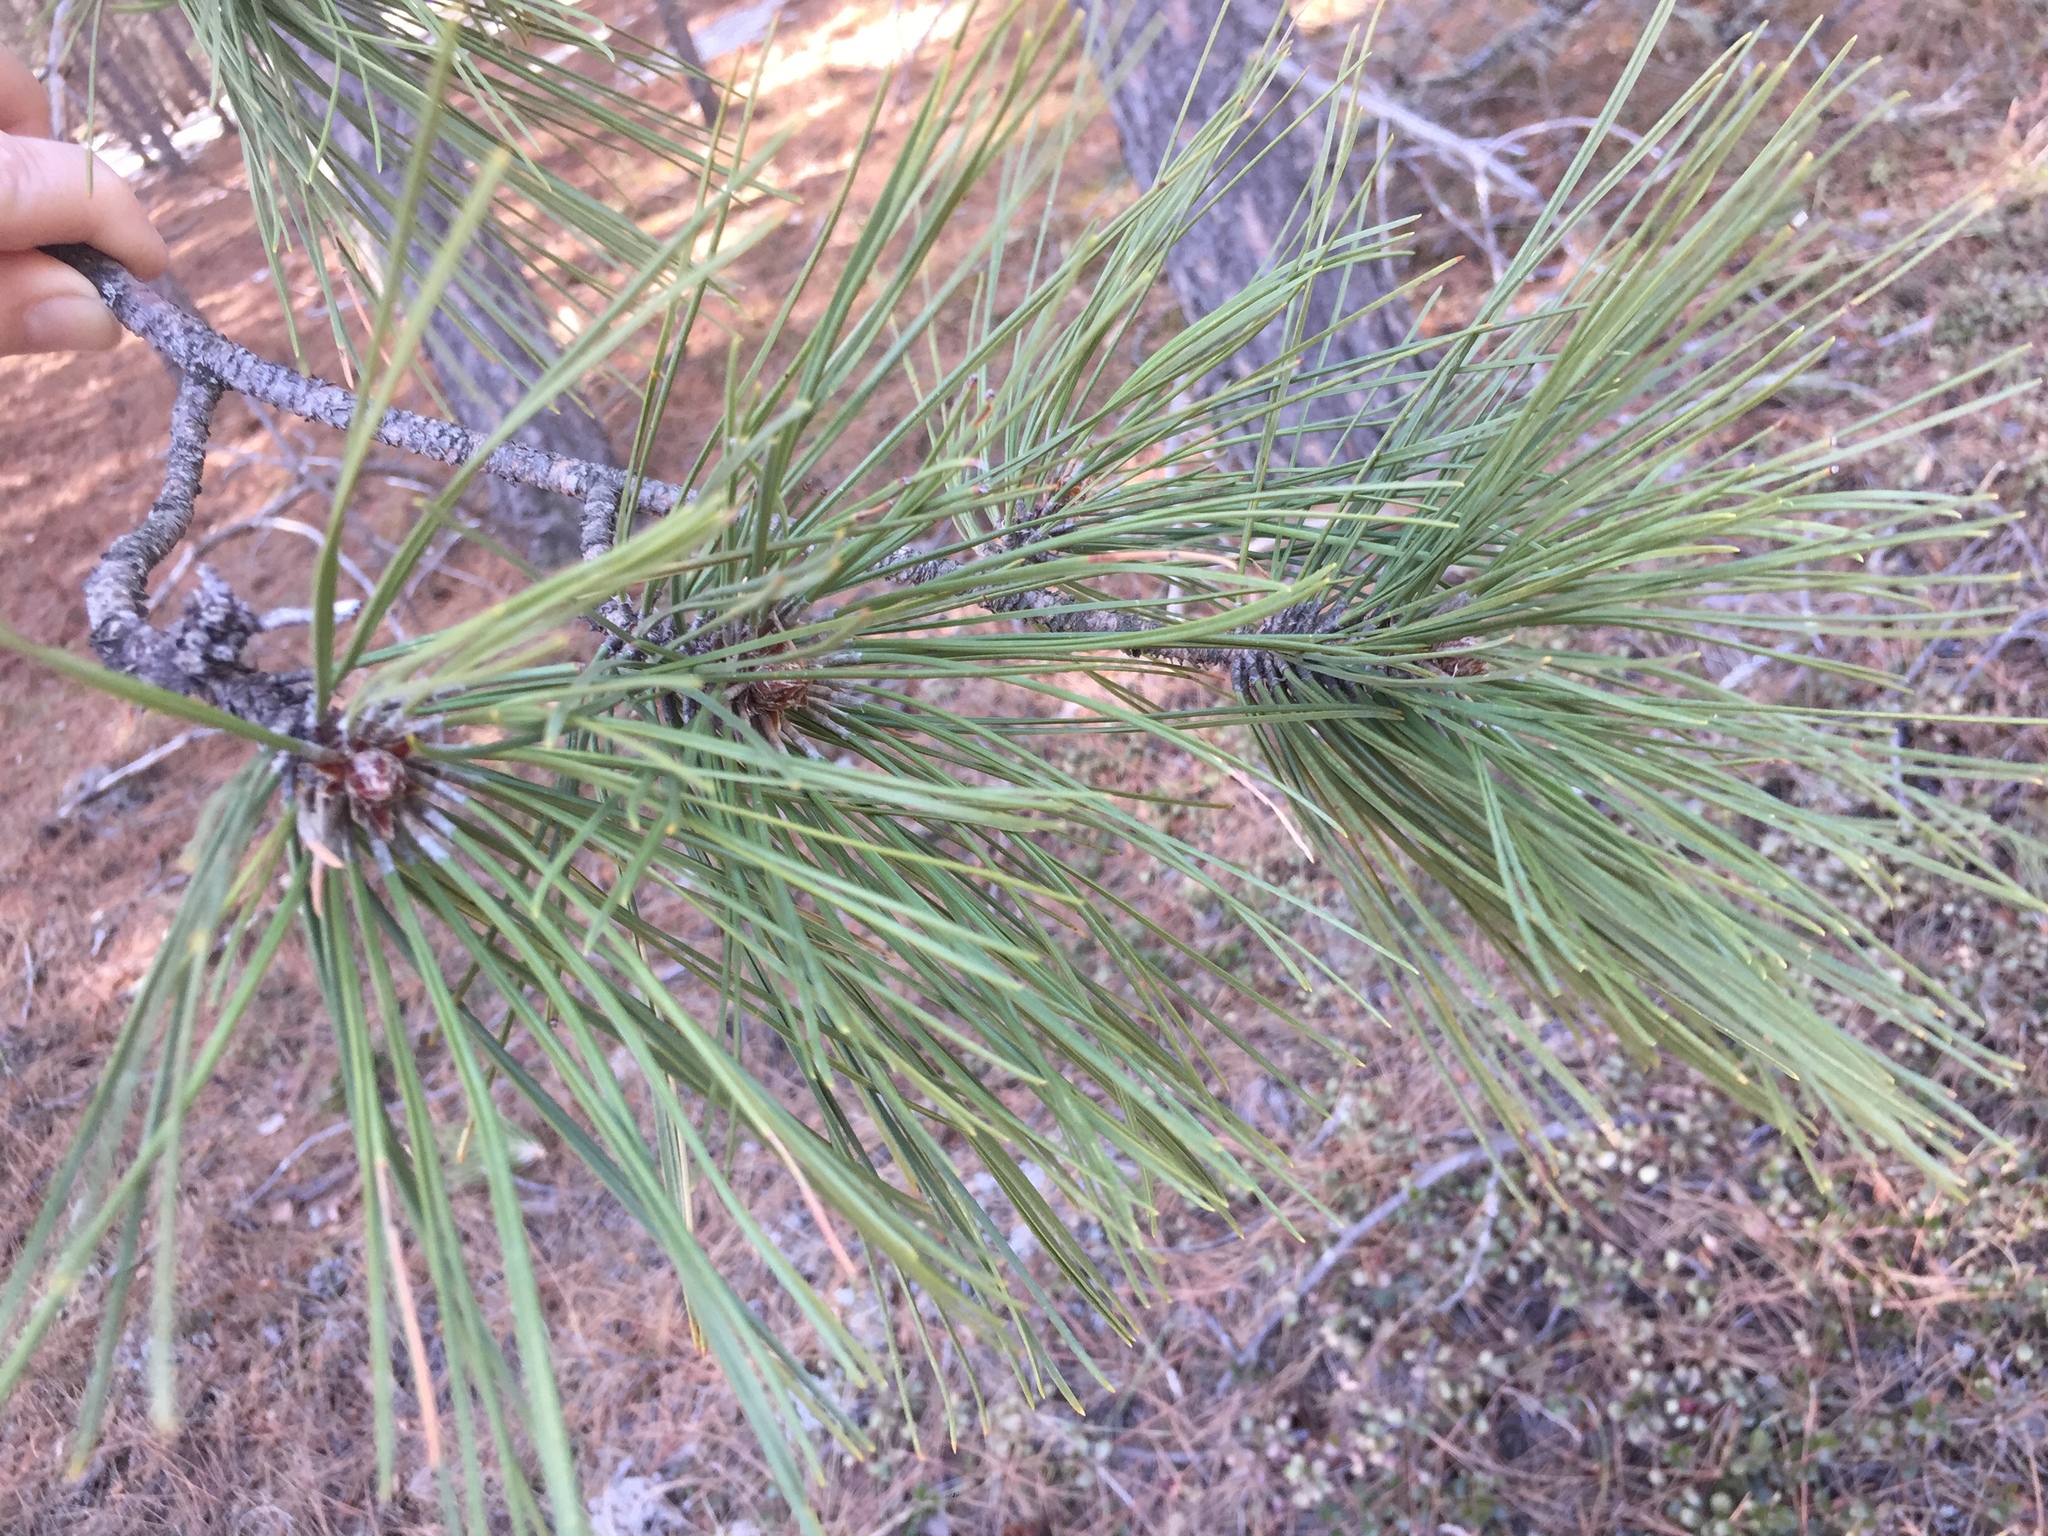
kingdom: Plantae
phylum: Tracheophyta
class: Pinopsida
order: Pinales
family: Pinaceae
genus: Pinus
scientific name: Pinus resinosa
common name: Norway pine
